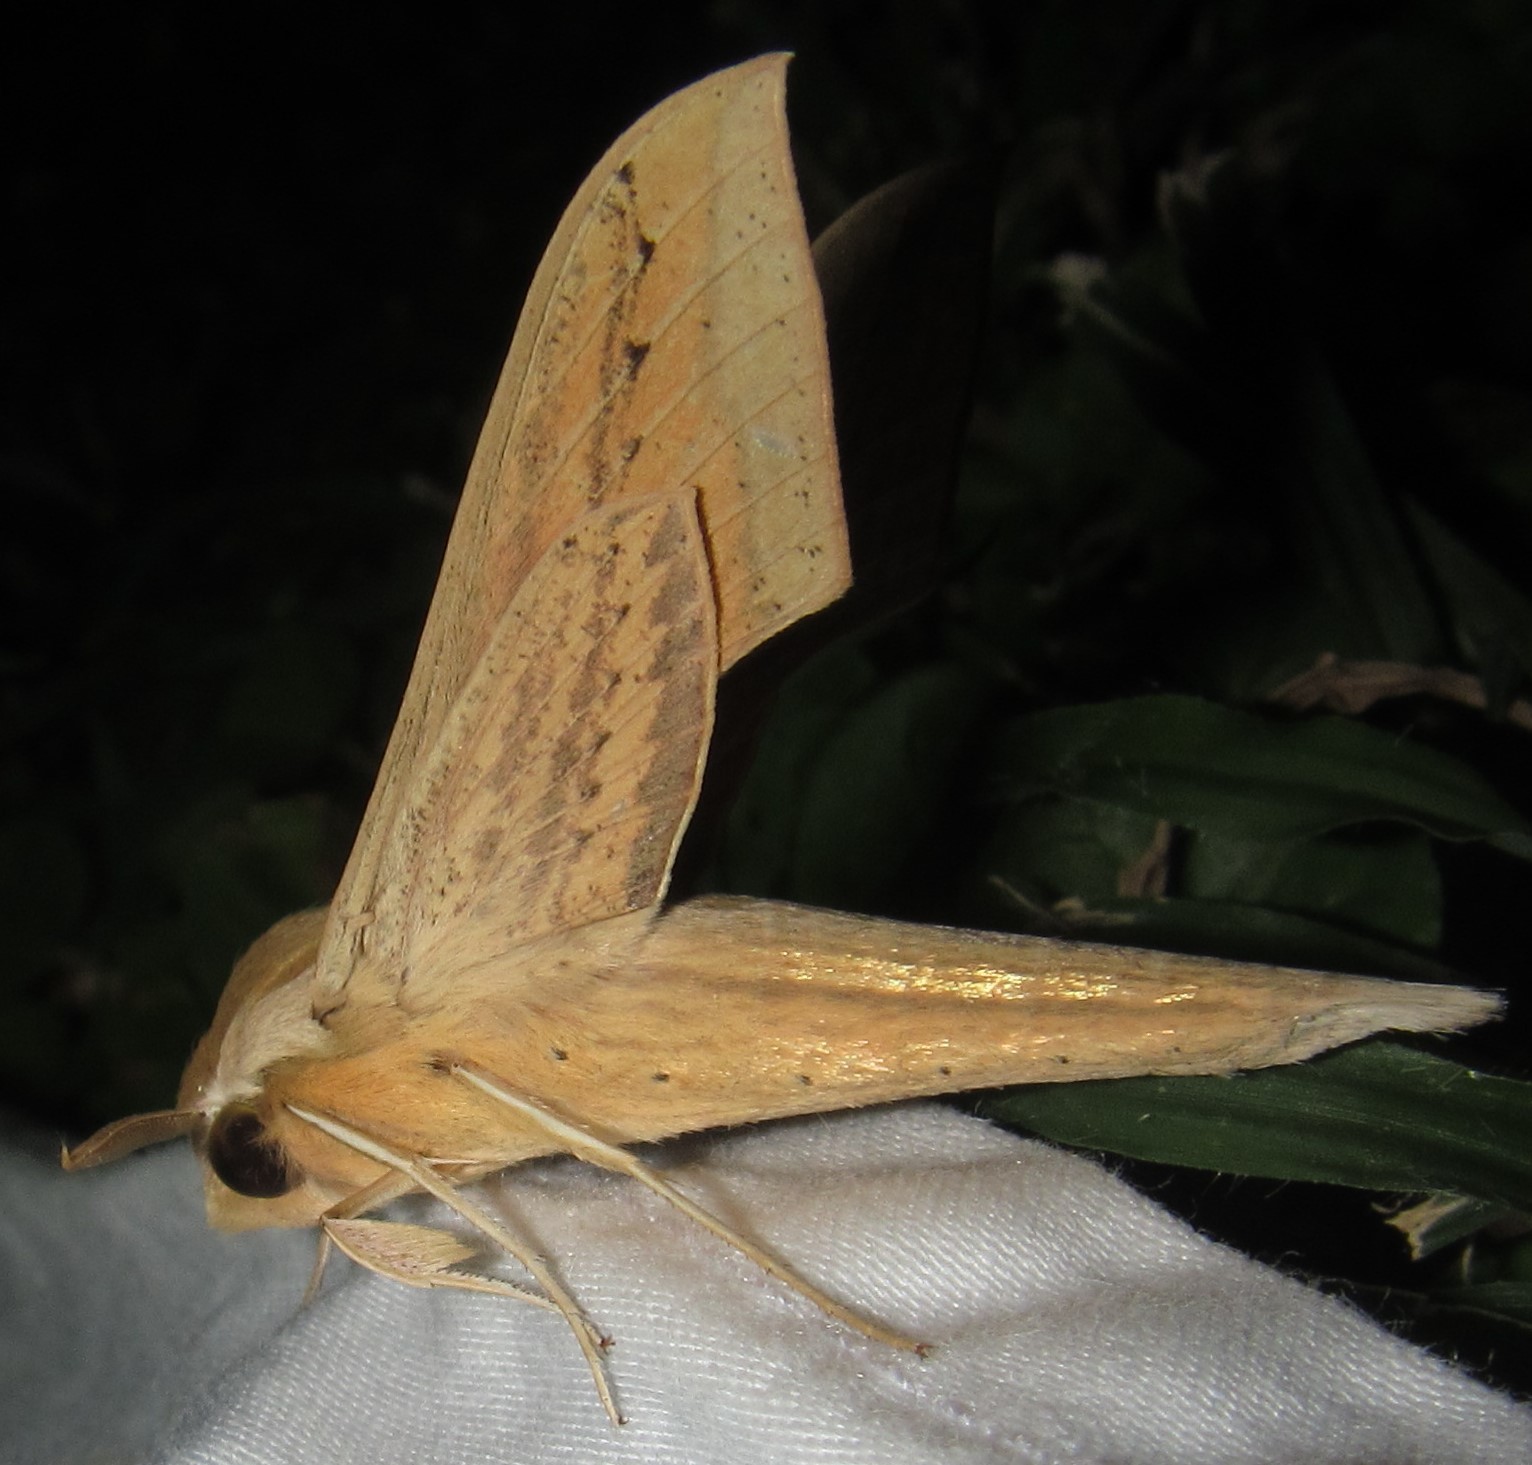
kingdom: Animalia
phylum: Arthropoda
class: Insecta
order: Lepidoptera
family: Sphingidae
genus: Hippotion
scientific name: Hippotion balsaminae
